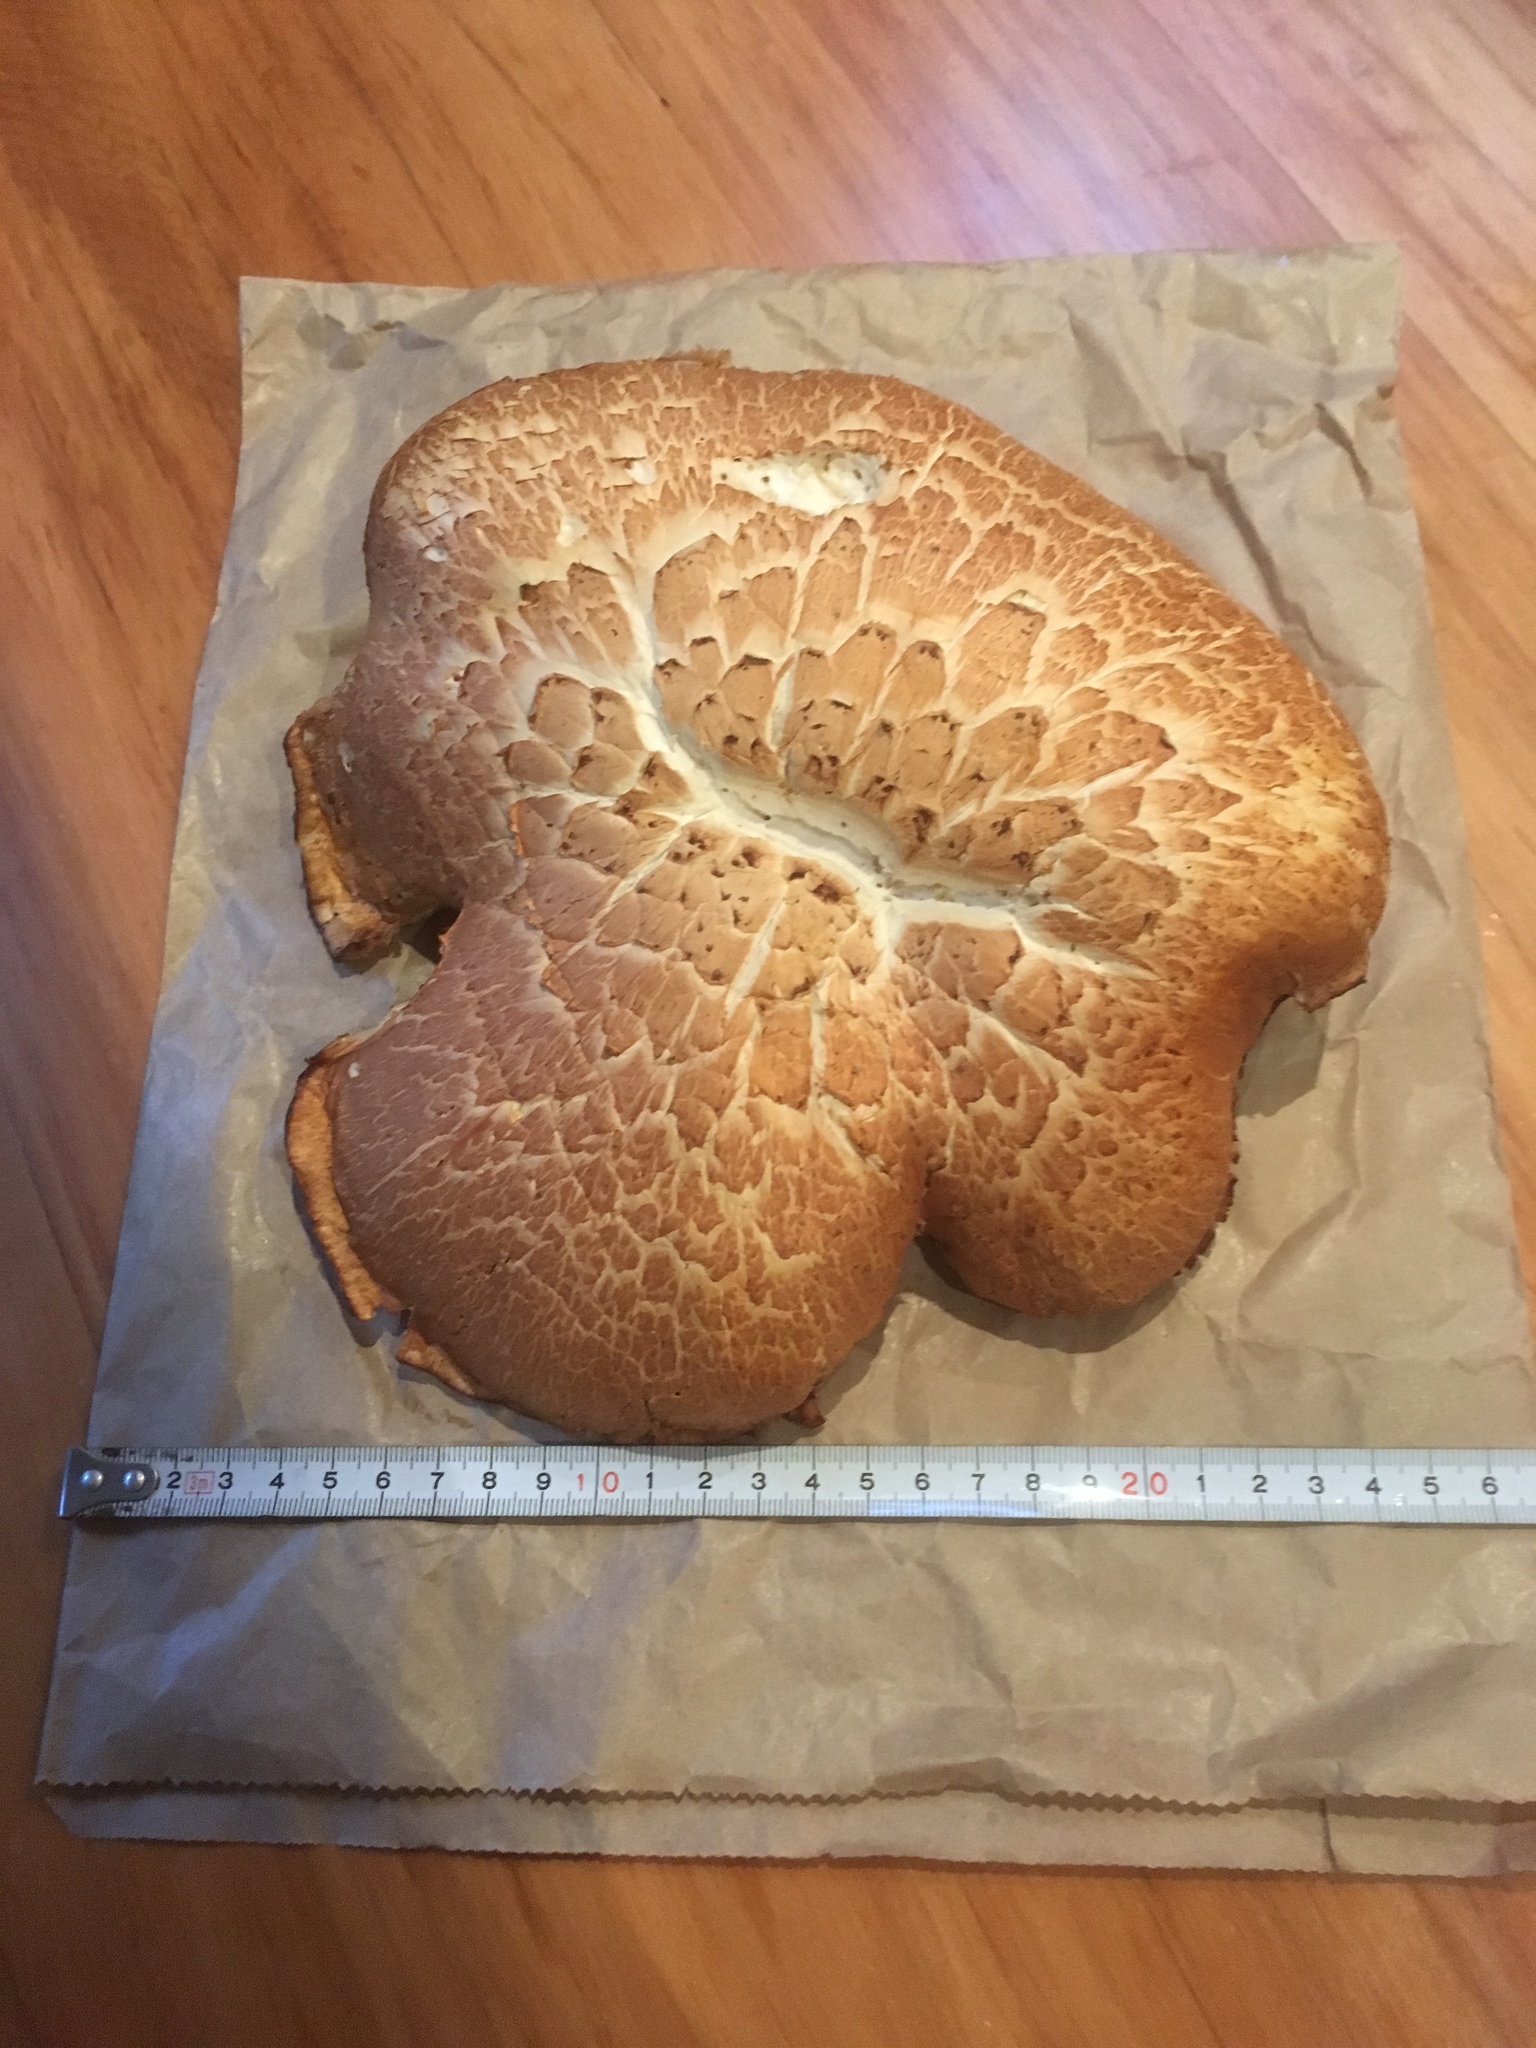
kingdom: Fungi
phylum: Basidiomycota
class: Agaricomycetes
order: Gloeophyllales
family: Gloeophyllaceae
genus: Neolentinus
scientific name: Neolentinus lepideus
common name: Scaly sawgill
